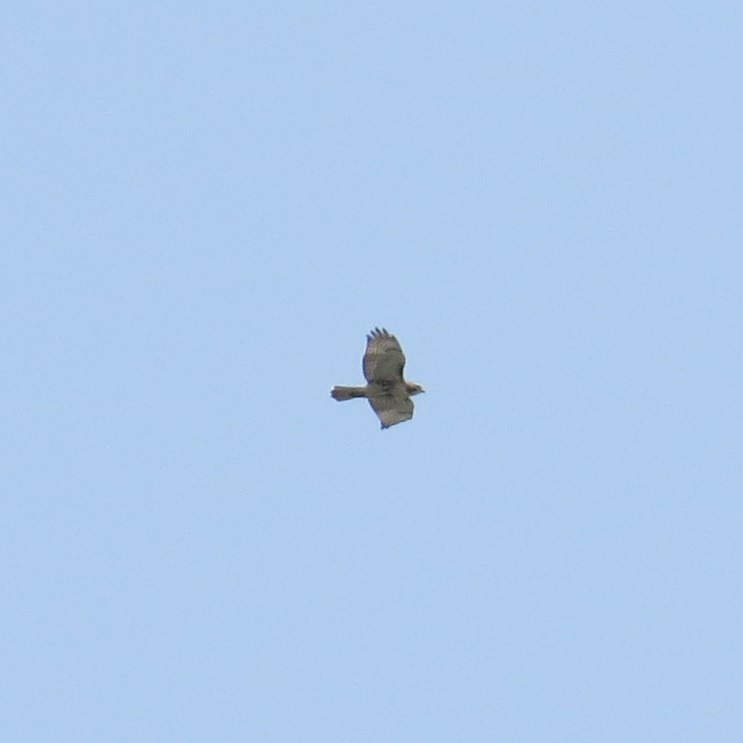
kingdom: Animalia
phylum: Chordata
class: Aves
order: Accipitriformes
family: Accipitridae
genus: Buteo
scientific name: Buteo jamaicensis
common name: Red-tailed hawk
